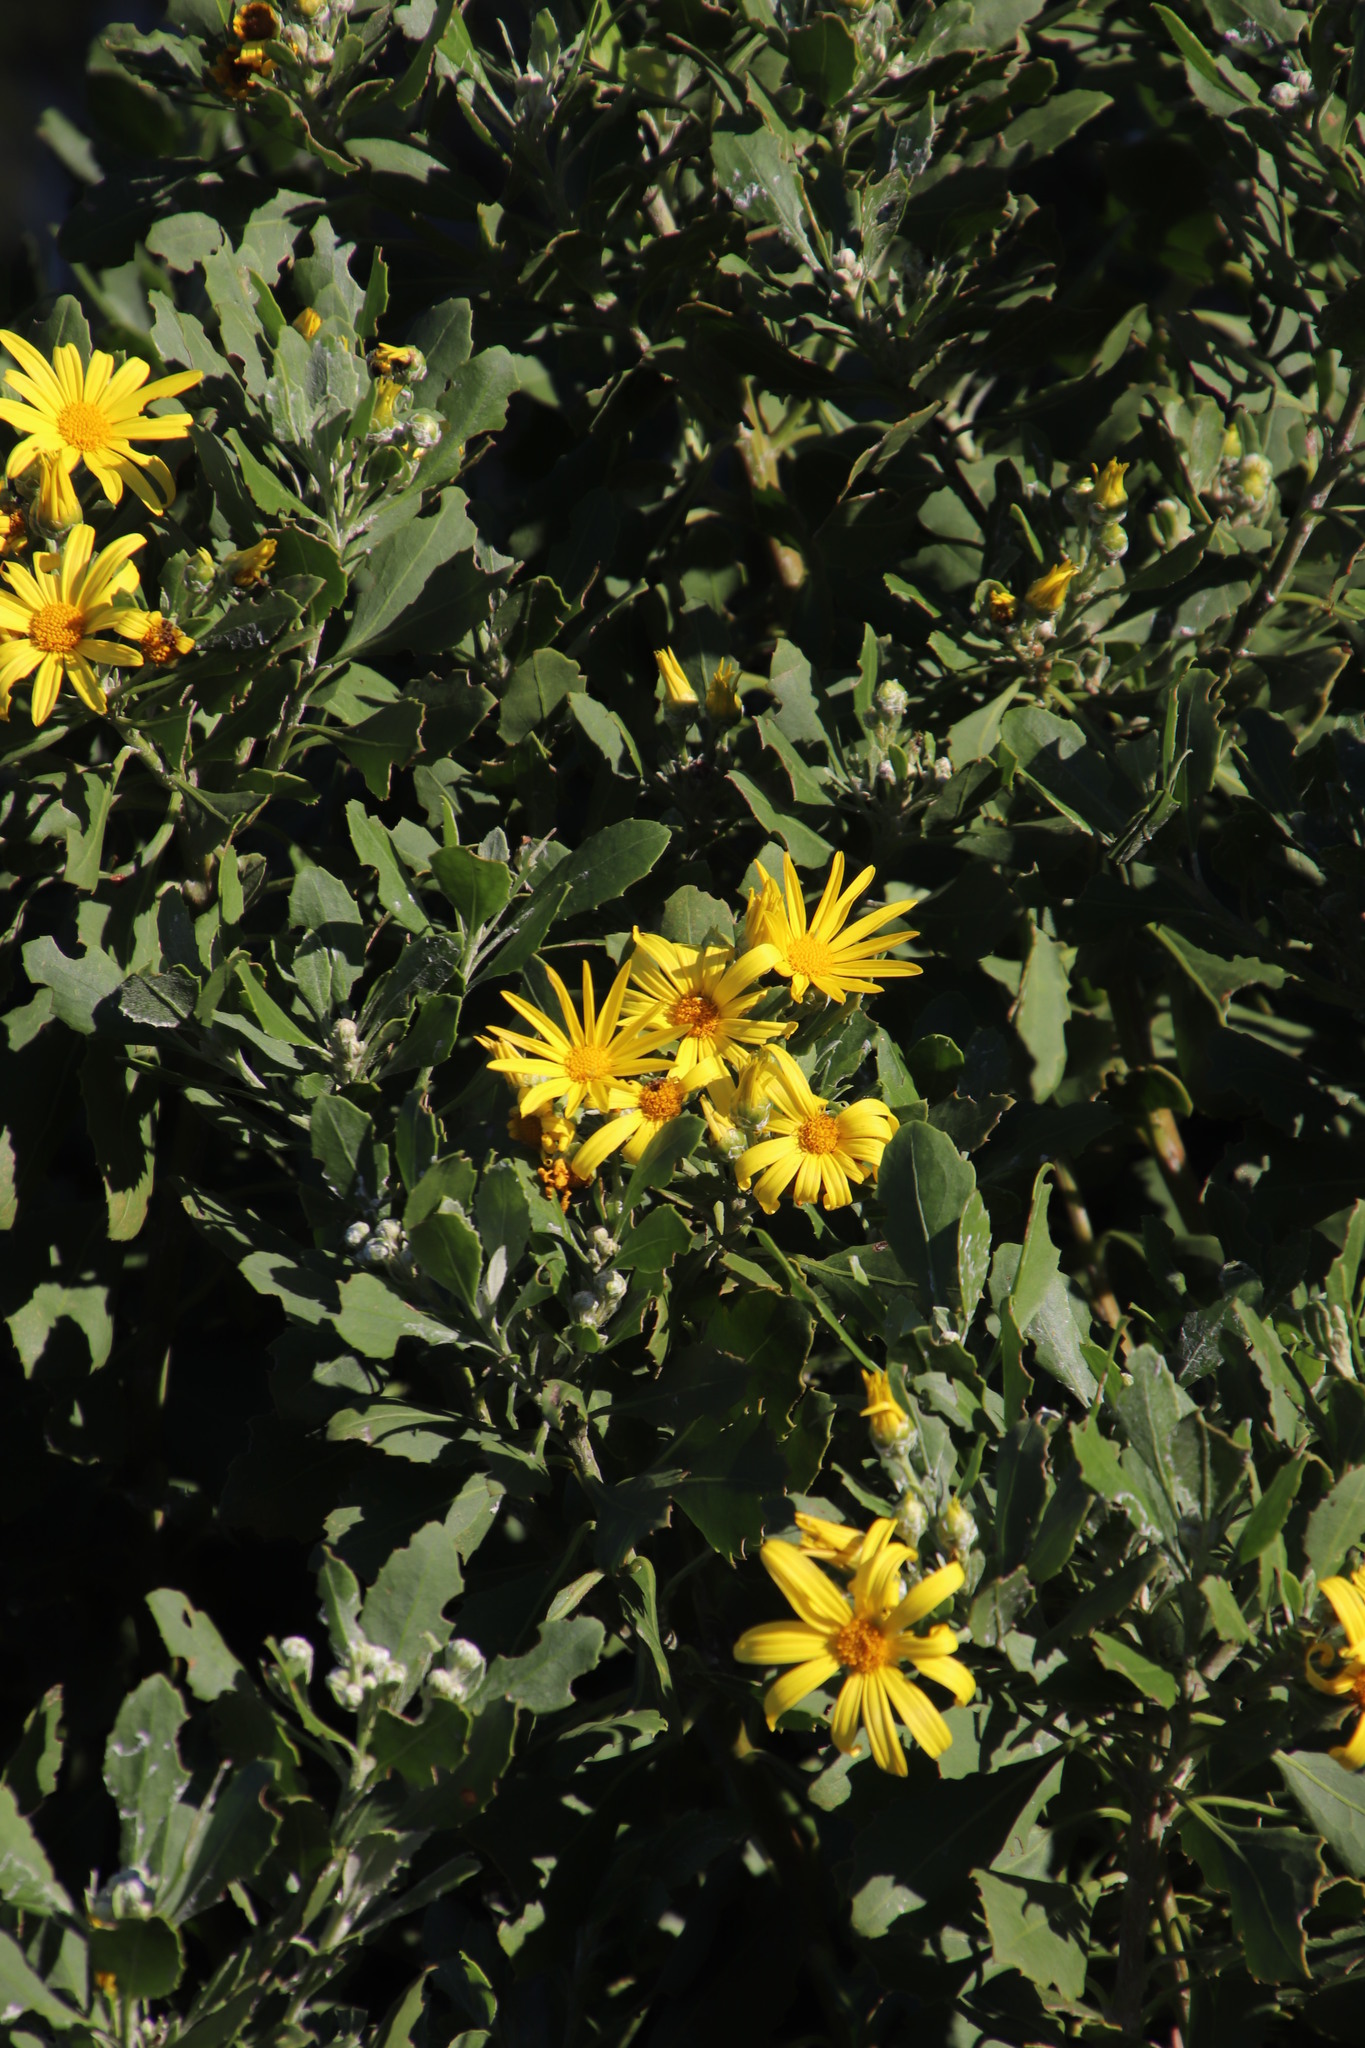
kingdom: Plantae
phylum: Tracheophyta
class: Magnoliopsida
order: Asterales
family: Asteraceae
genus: Osteospermum
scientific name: Osteospermum moniliferum
